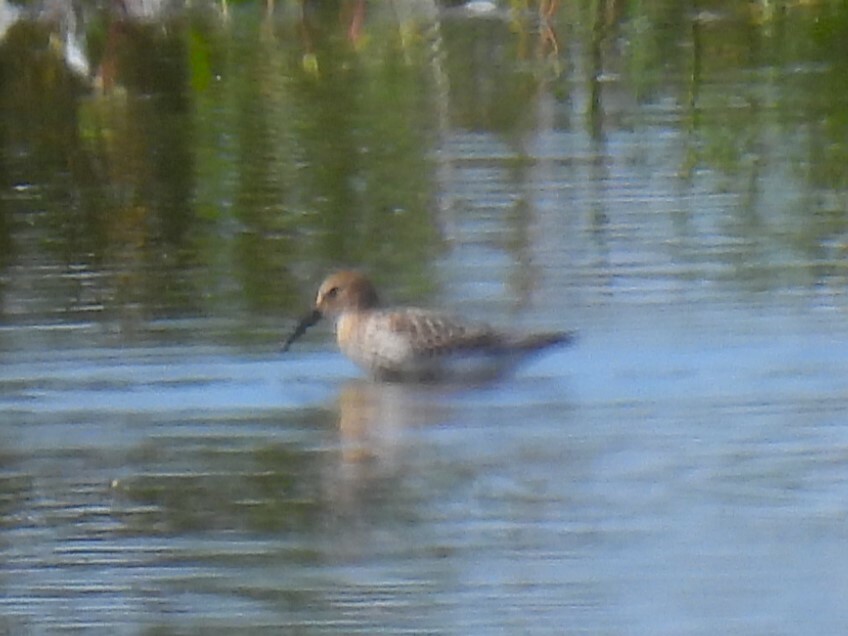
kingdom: Animalia
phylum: Chordata
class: Aves
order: Charadriiformes
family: Scolopacidae
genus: Calidris
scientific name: Calidris ferruginea
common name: Curlew sandpiper
